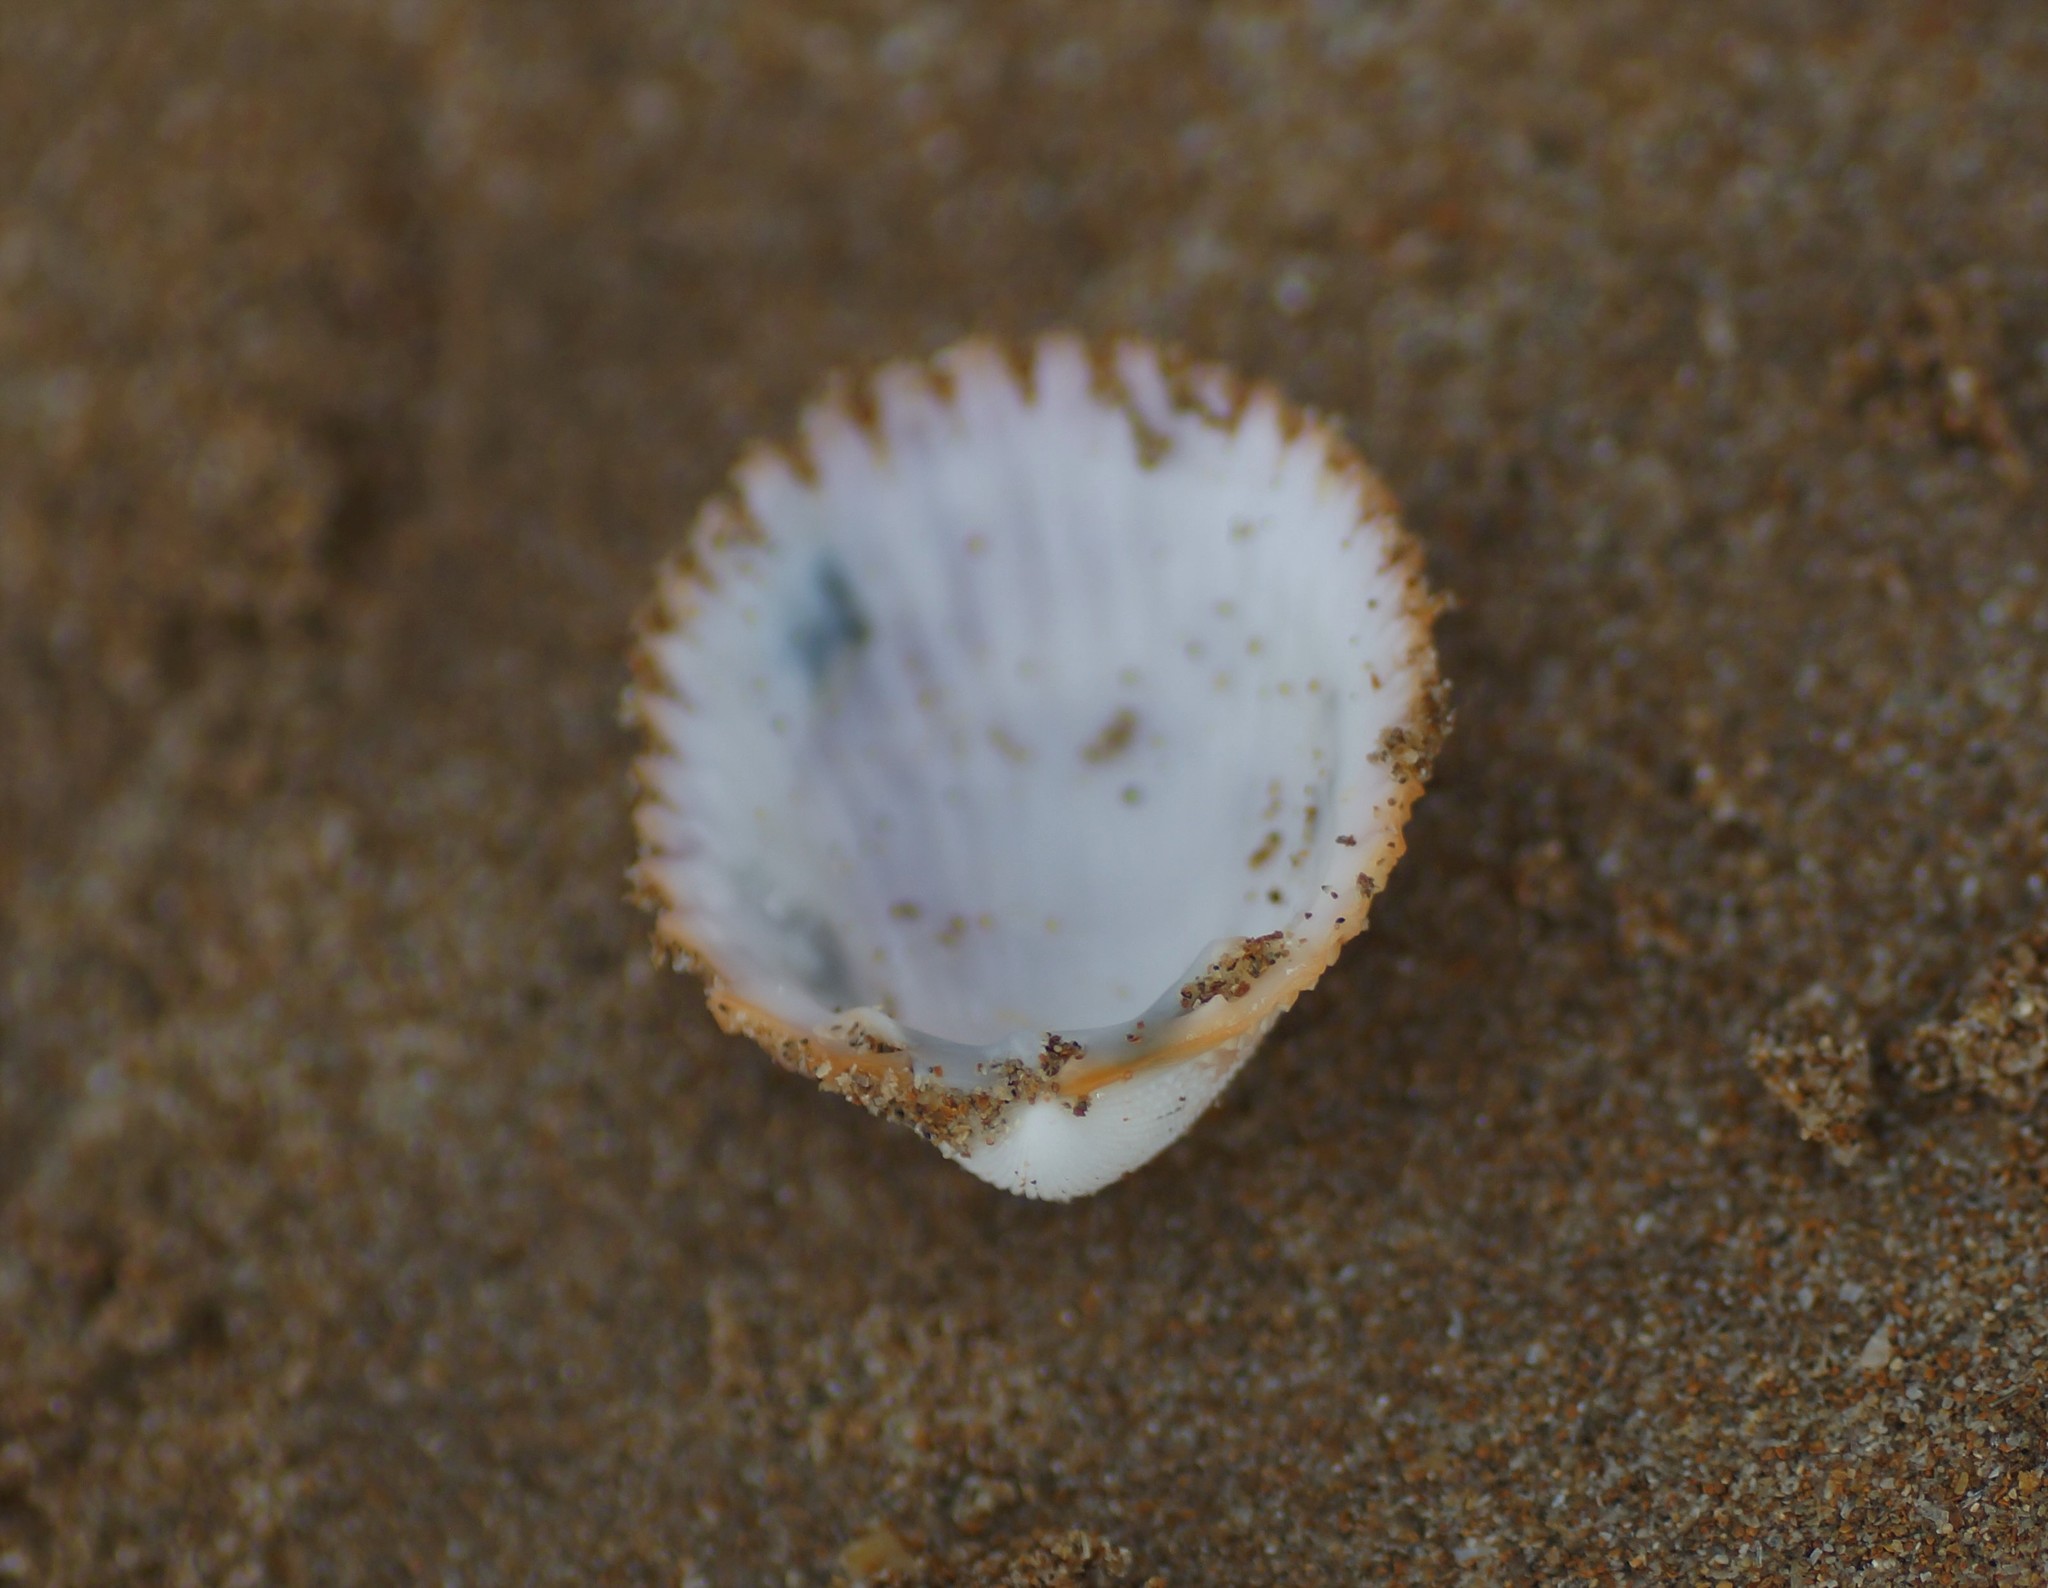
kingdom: Animalia
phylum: Mollusca
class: Bivalvia
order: Cardiida
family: Cardiidae
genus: Vasticardium
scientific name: Vasticardium vertebratum
